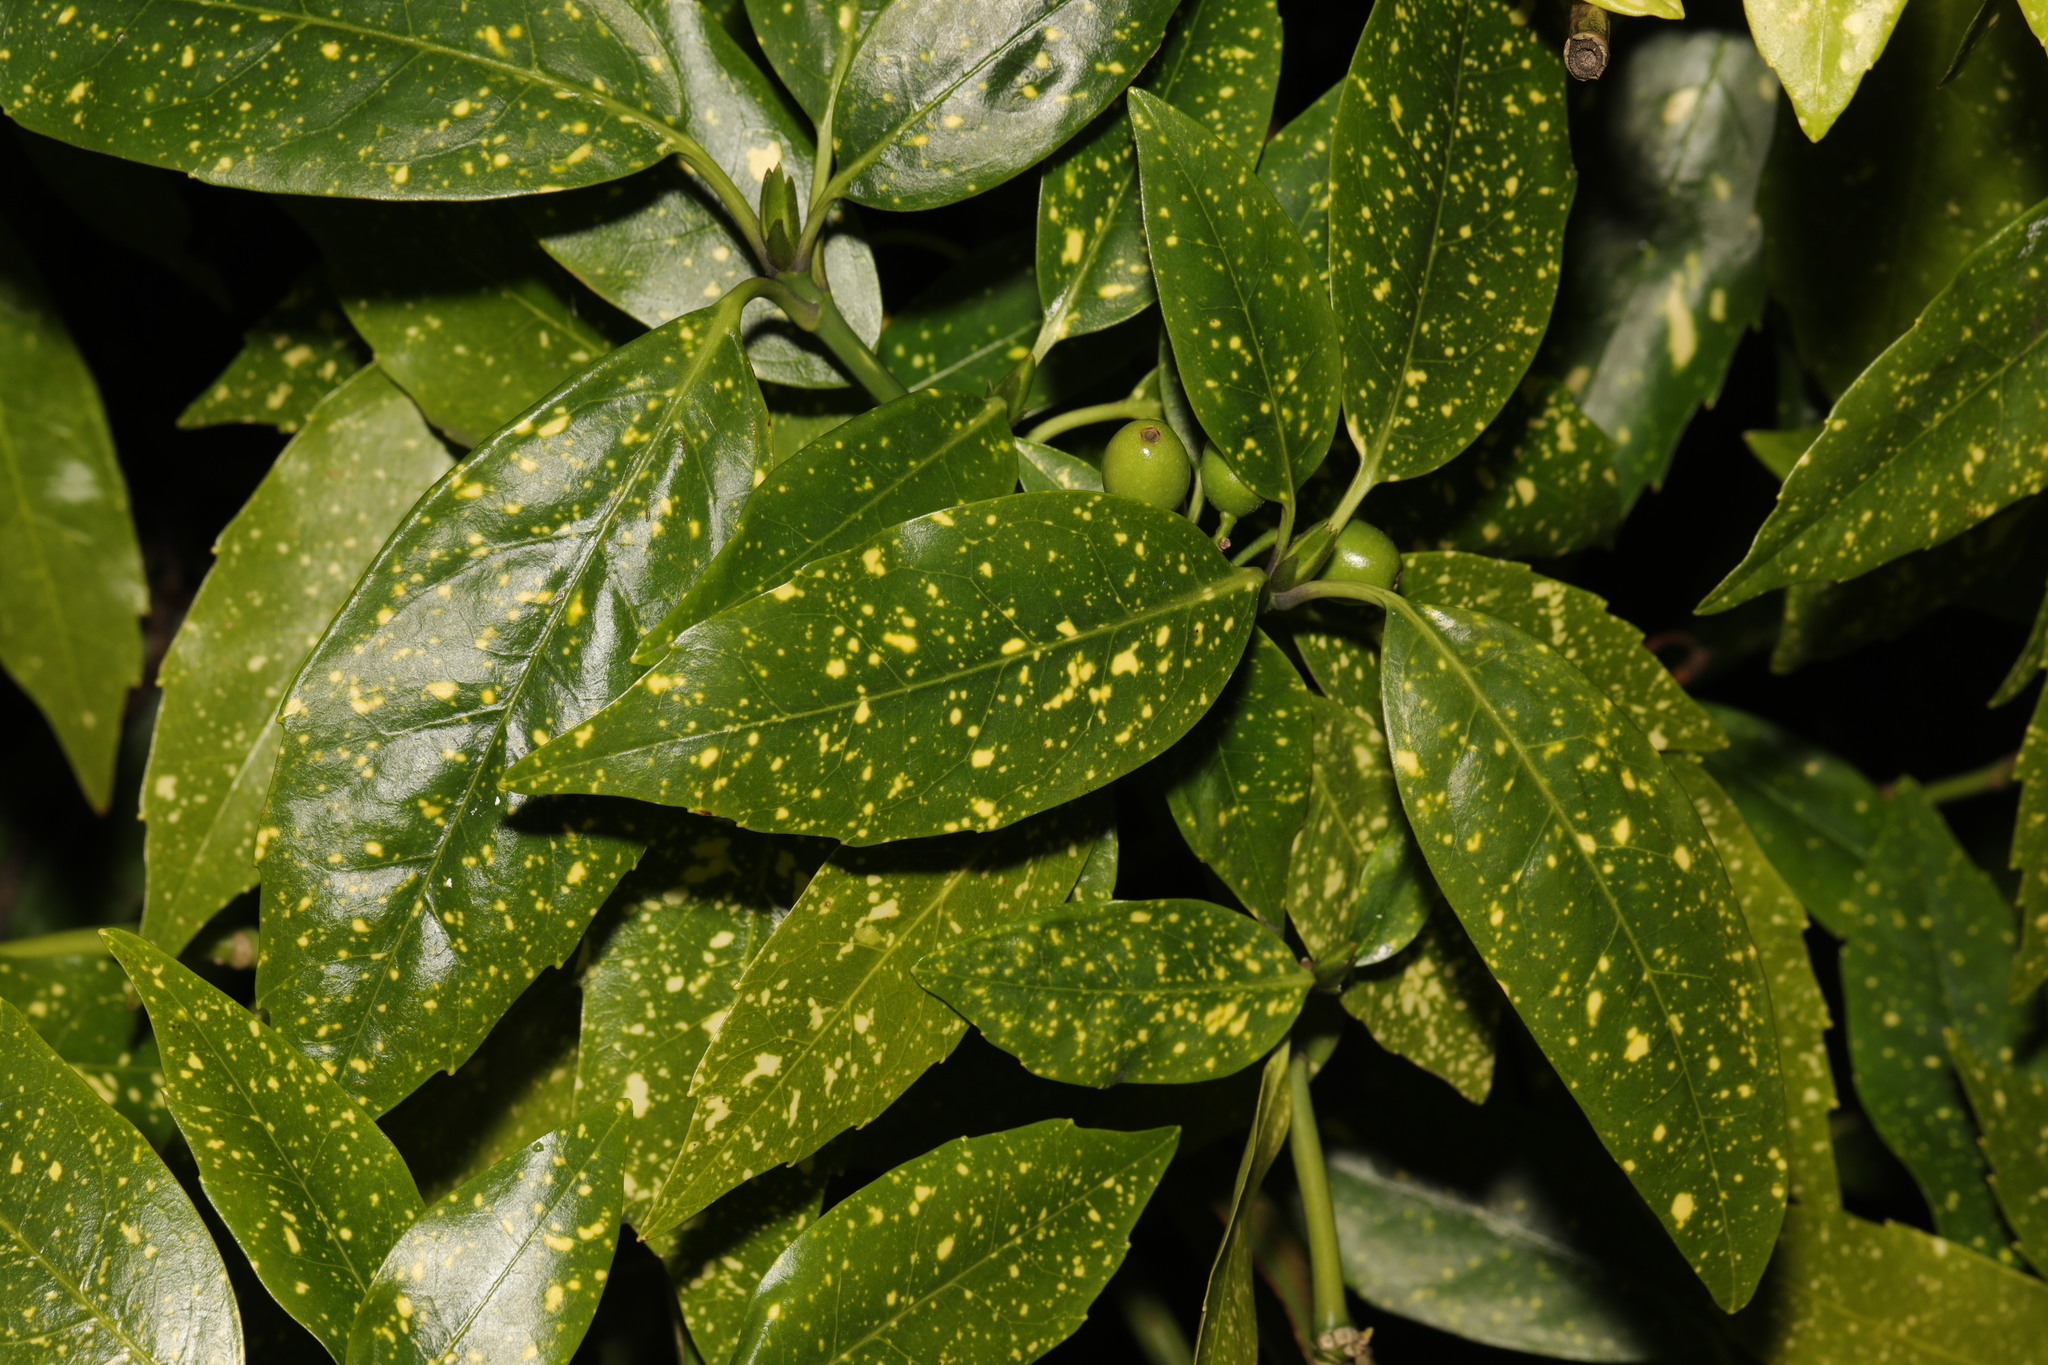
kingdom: Plantae
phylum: Tracheophyta
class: Magnoliopsida
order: Garryales
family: Garryaceae
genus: Aucuba
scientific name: Aucuba japonica
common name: Spotted-laurel
